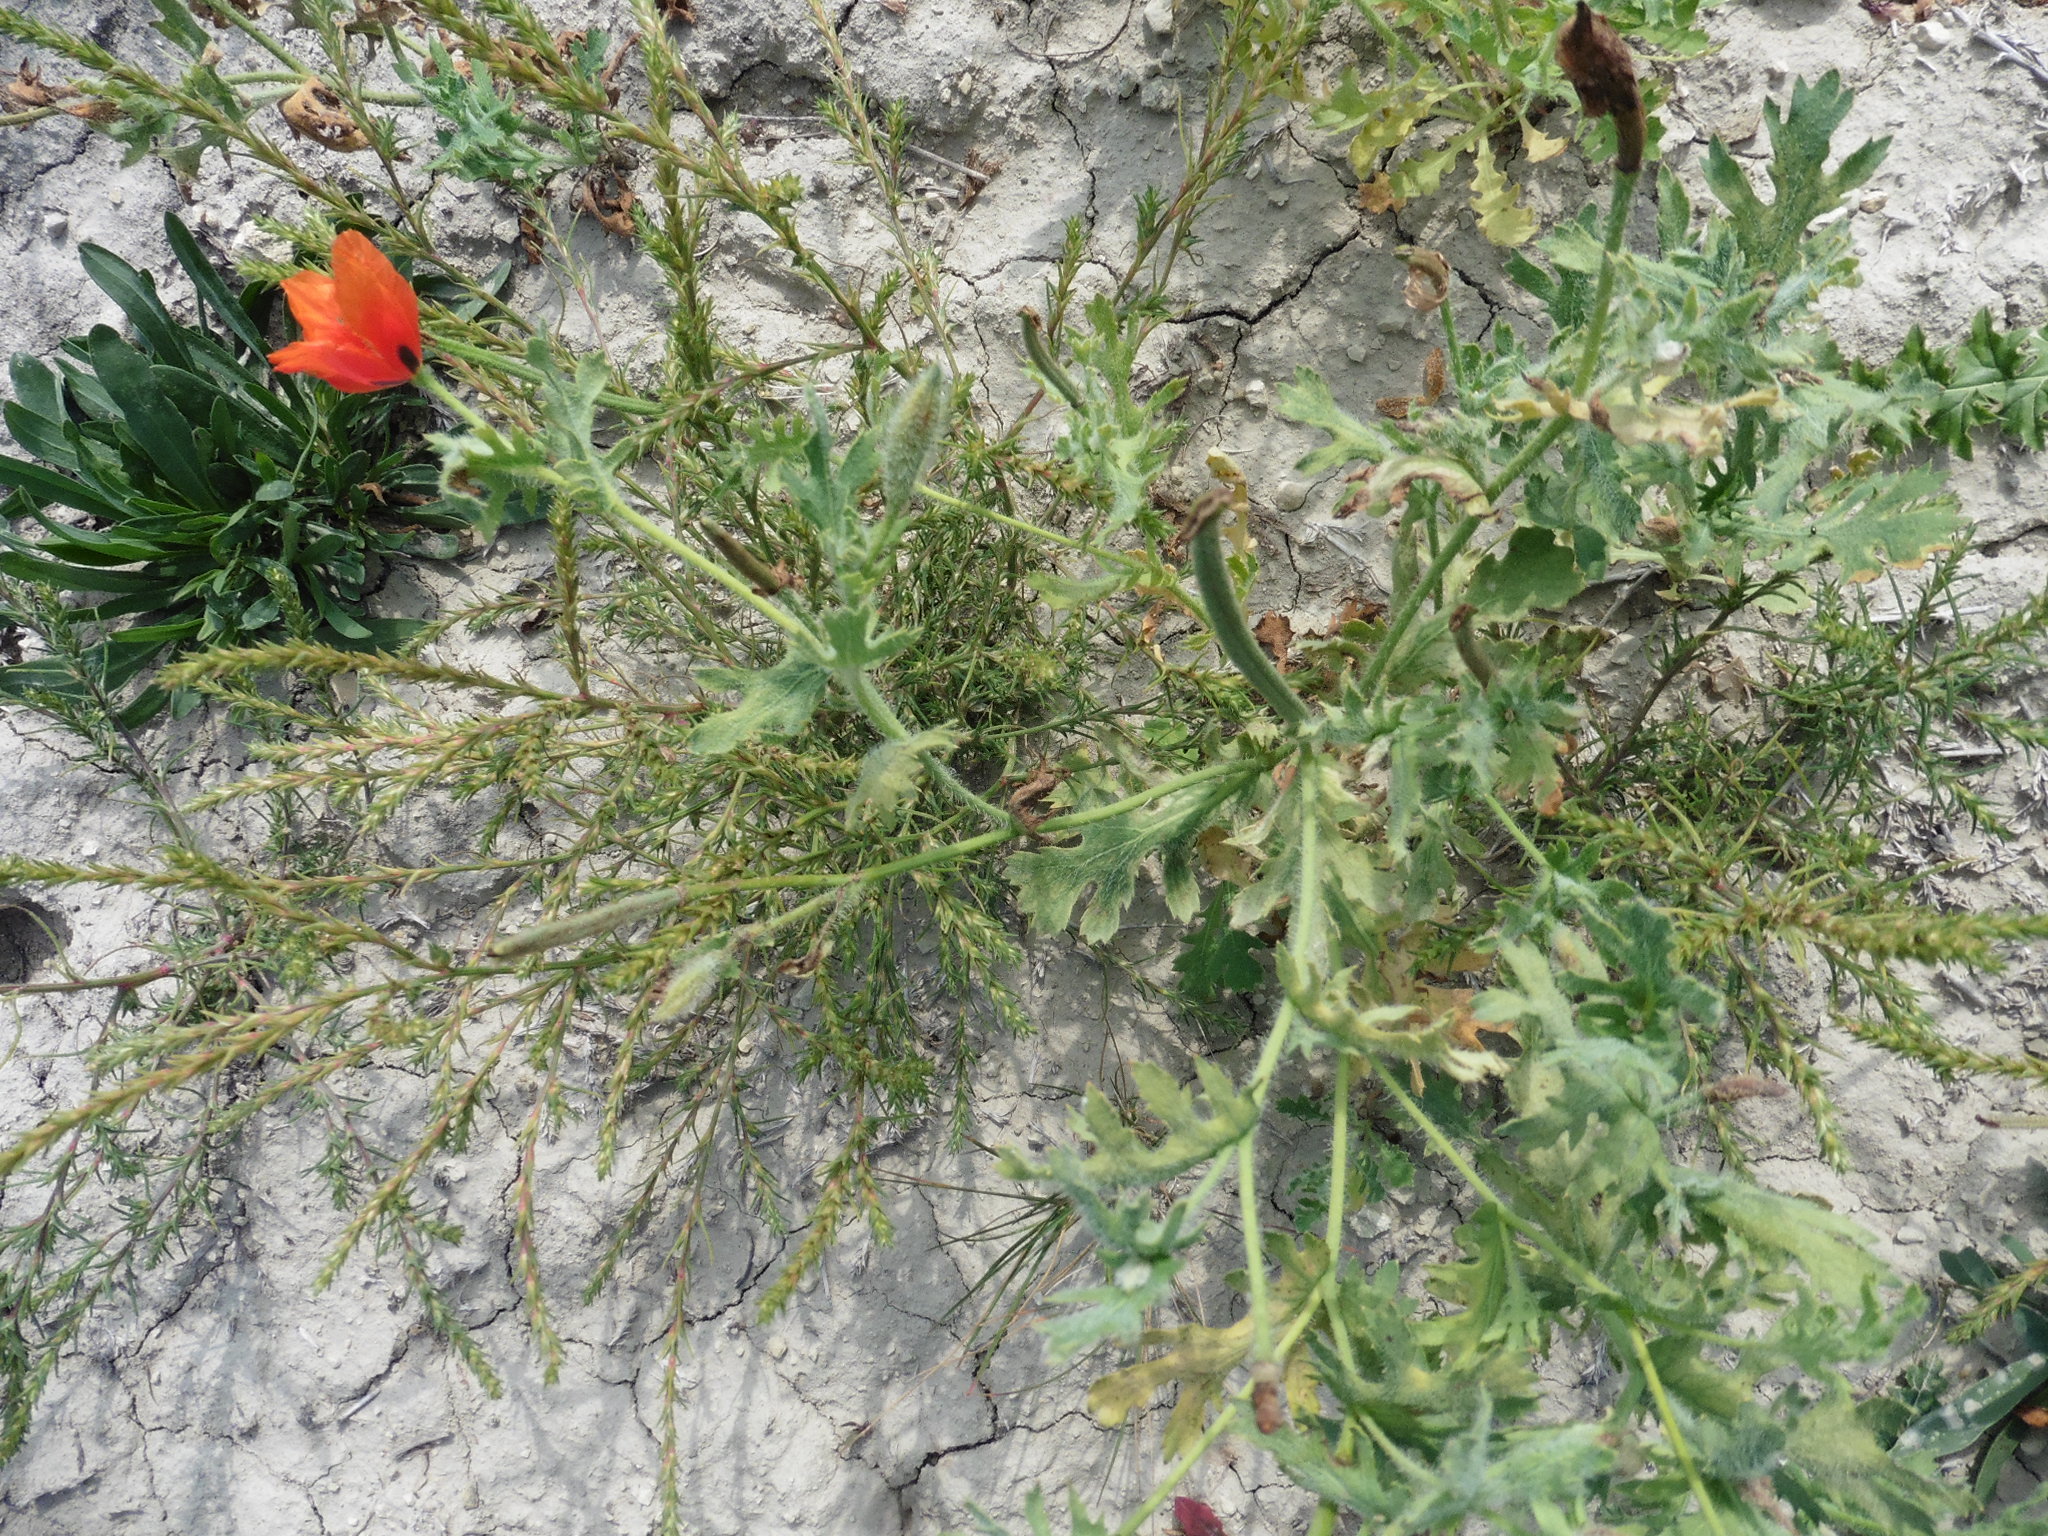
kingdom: Plantae
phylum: Tracheophyta
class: Magnoliopsida
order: Ranunculales
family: Papaveraceae
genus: Glaucium
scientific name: Glaucium corniculatum
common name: Red horned-poppy
